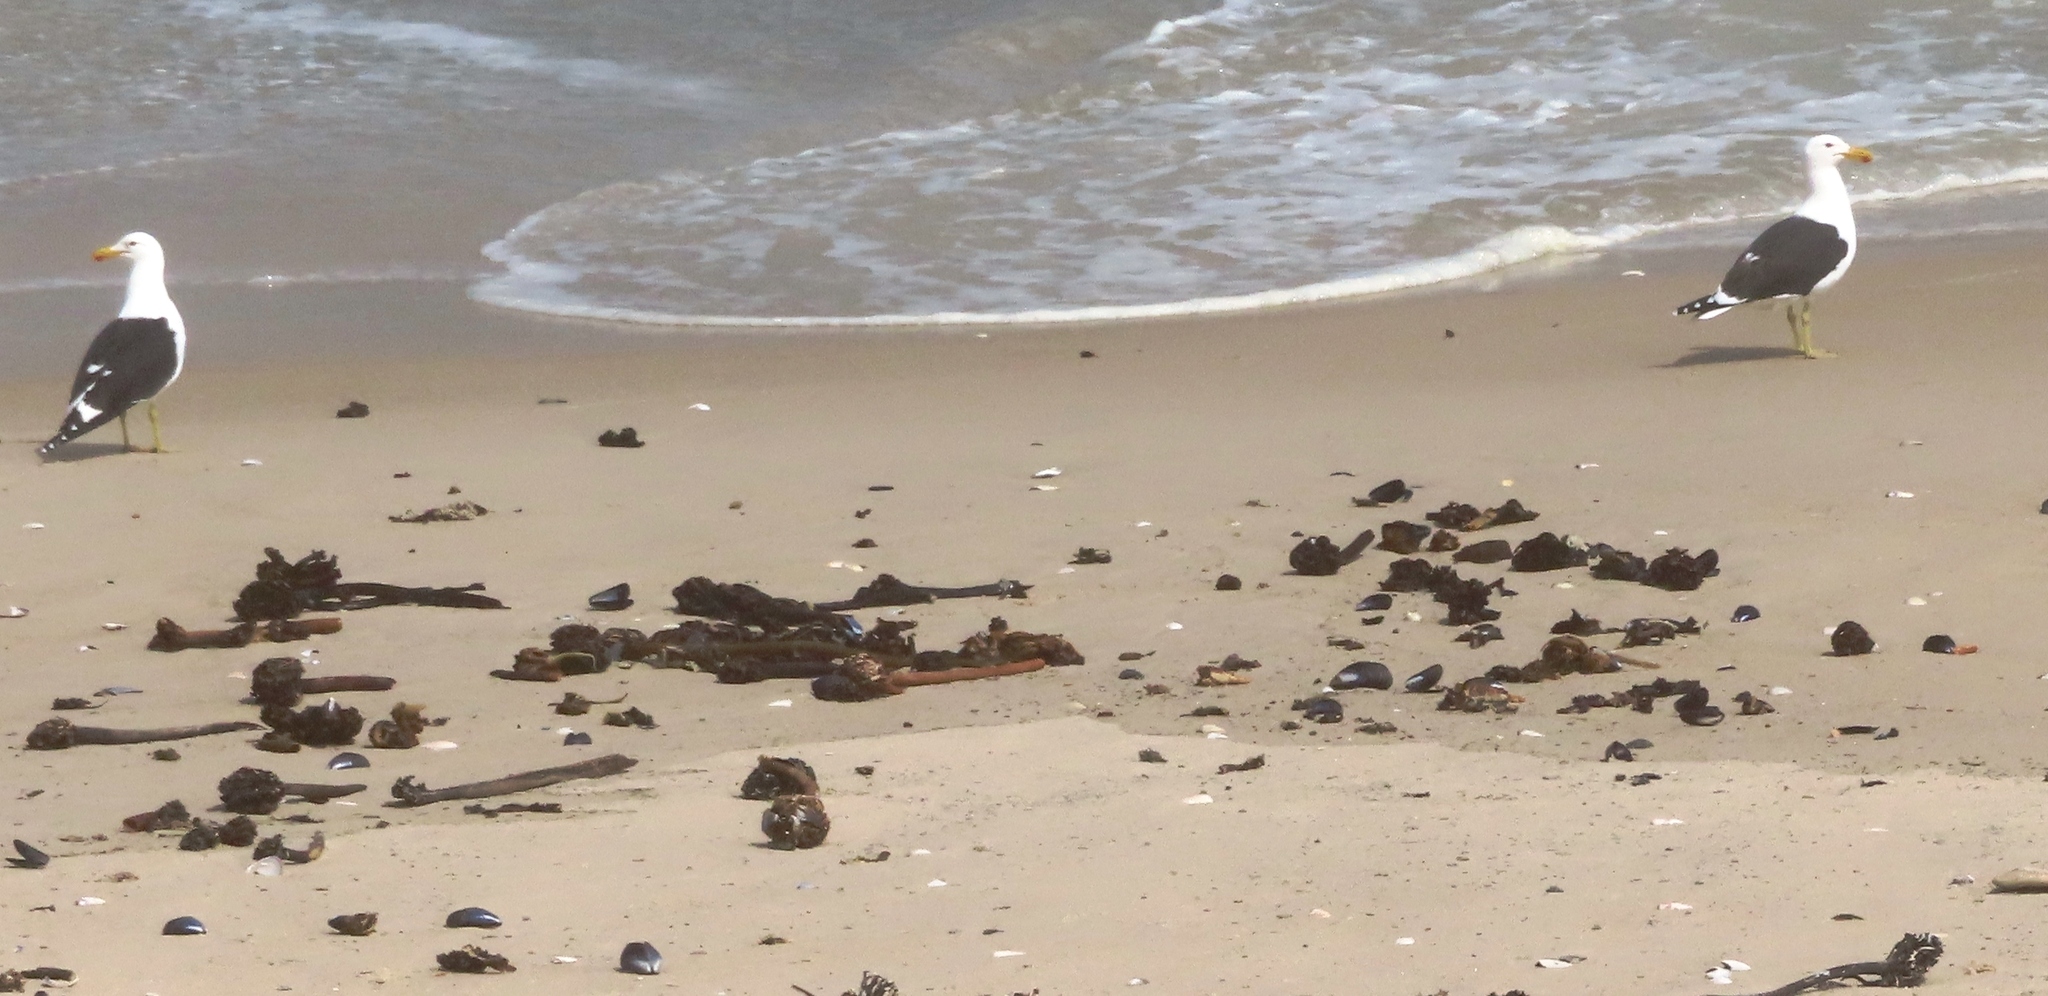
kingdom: Animalia
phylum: Chordata
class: Aves
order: Charadriiformes
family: Laridae
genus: Larus
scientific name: Larus dominicanus
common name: Kelp gull
